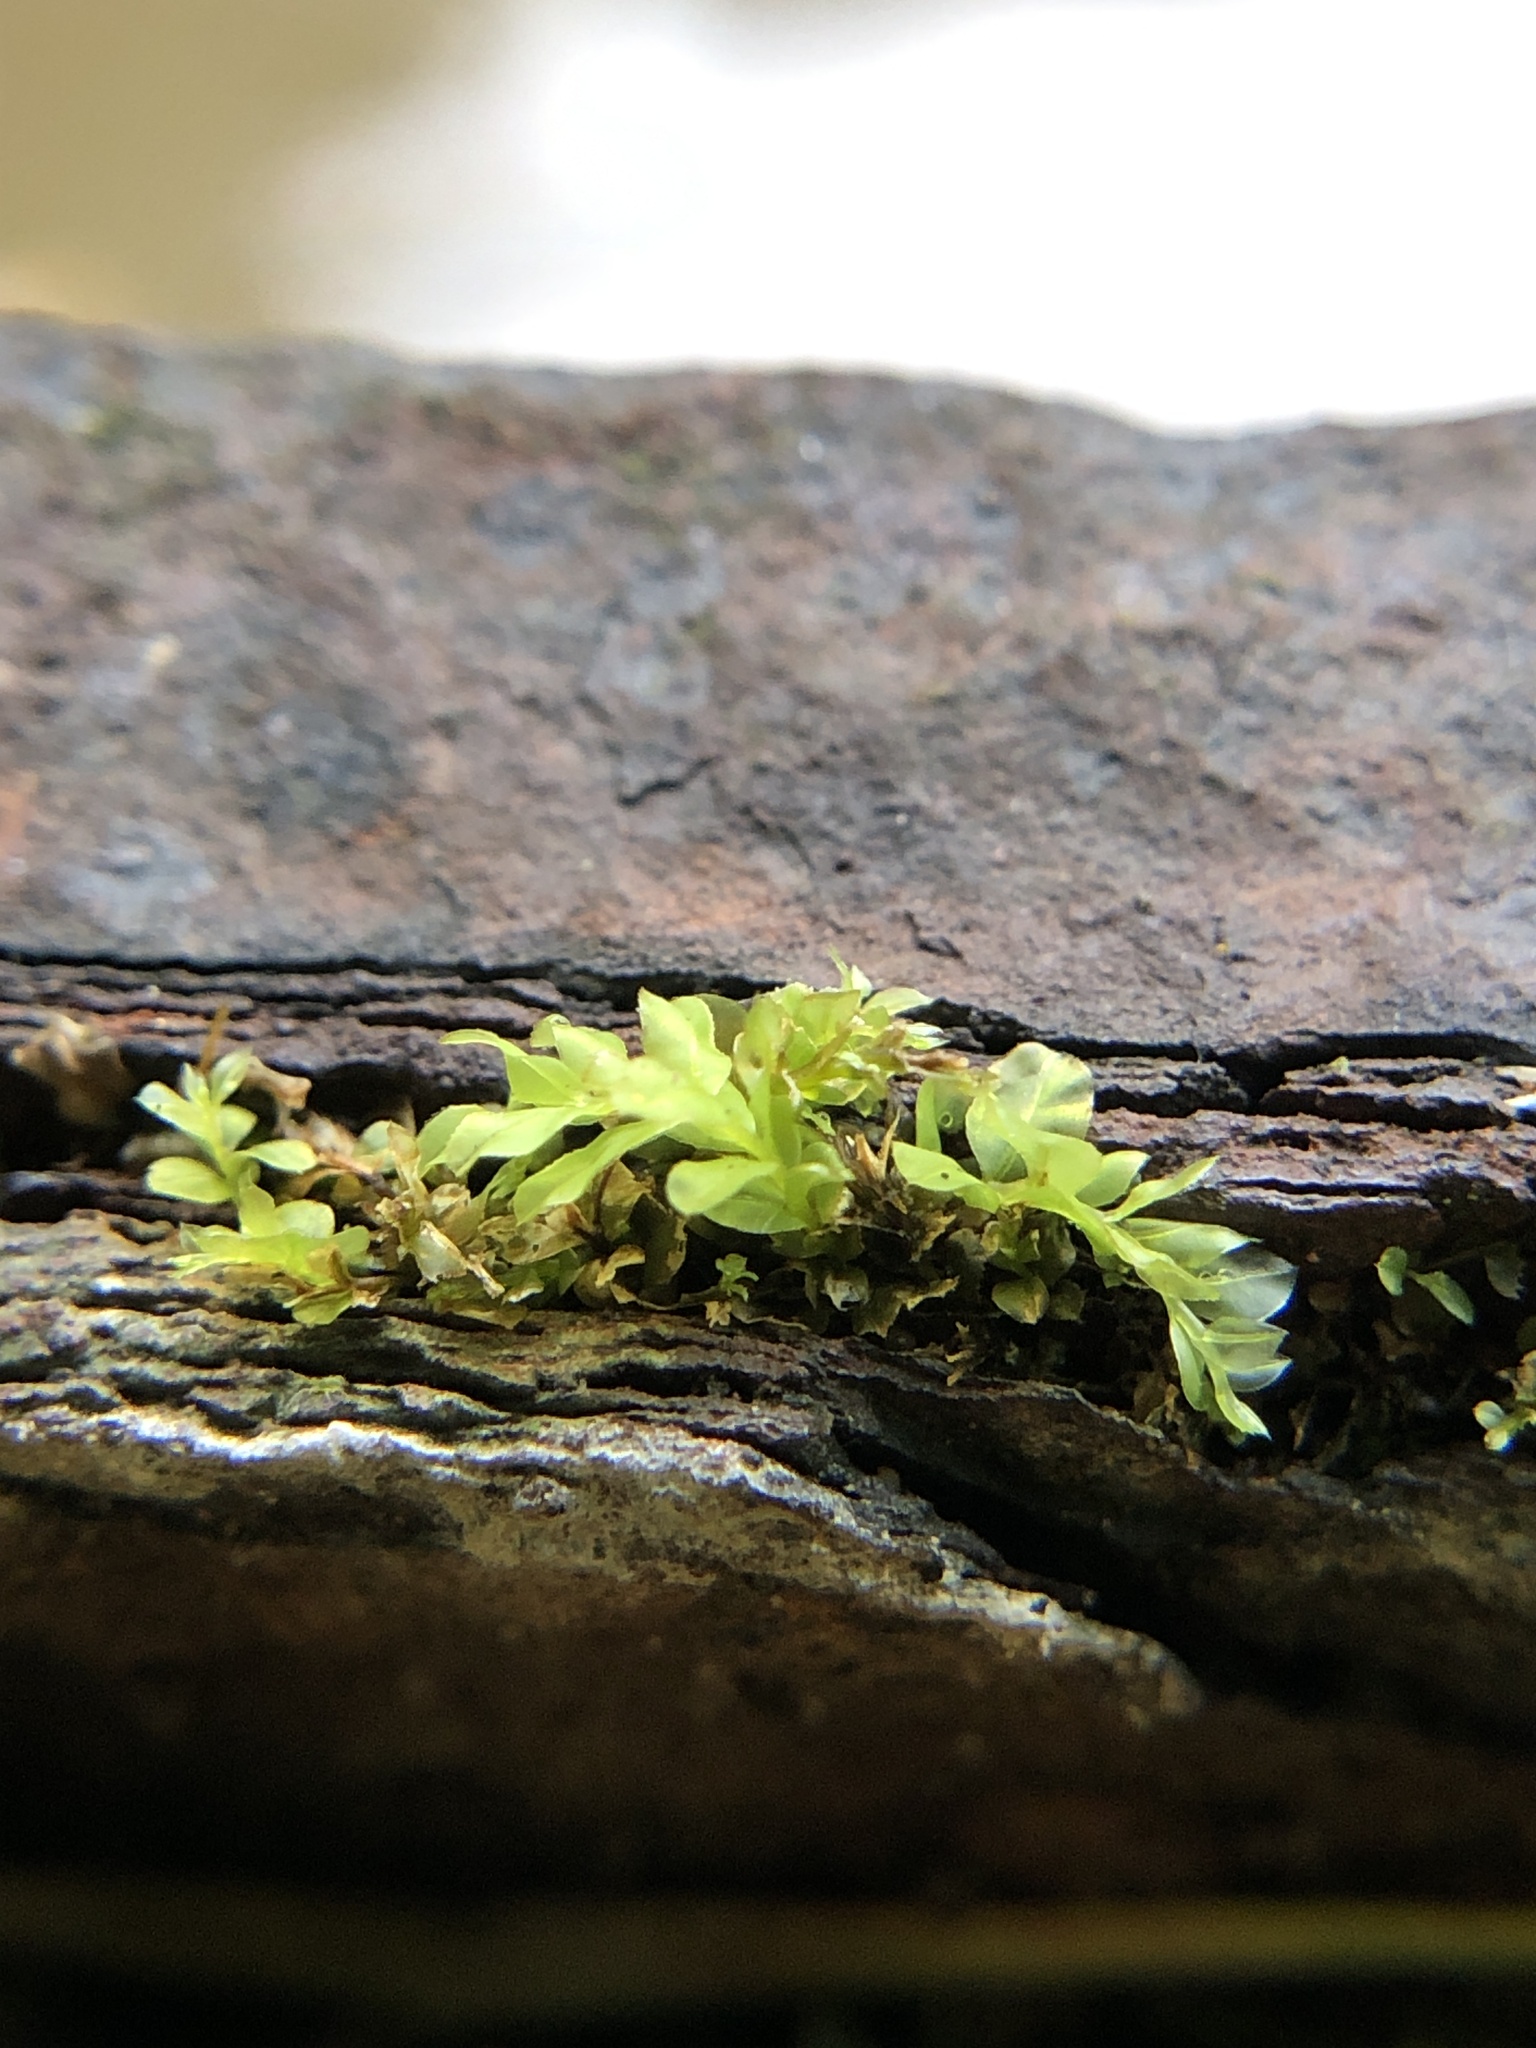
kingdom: Plantae
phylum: Bryophyta
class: Bryopsida
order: Bryales
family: Mniaceae
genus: Plagiomnium
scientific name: Plagiomnium undulatum
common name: Hart's-tongue thyme-moss
